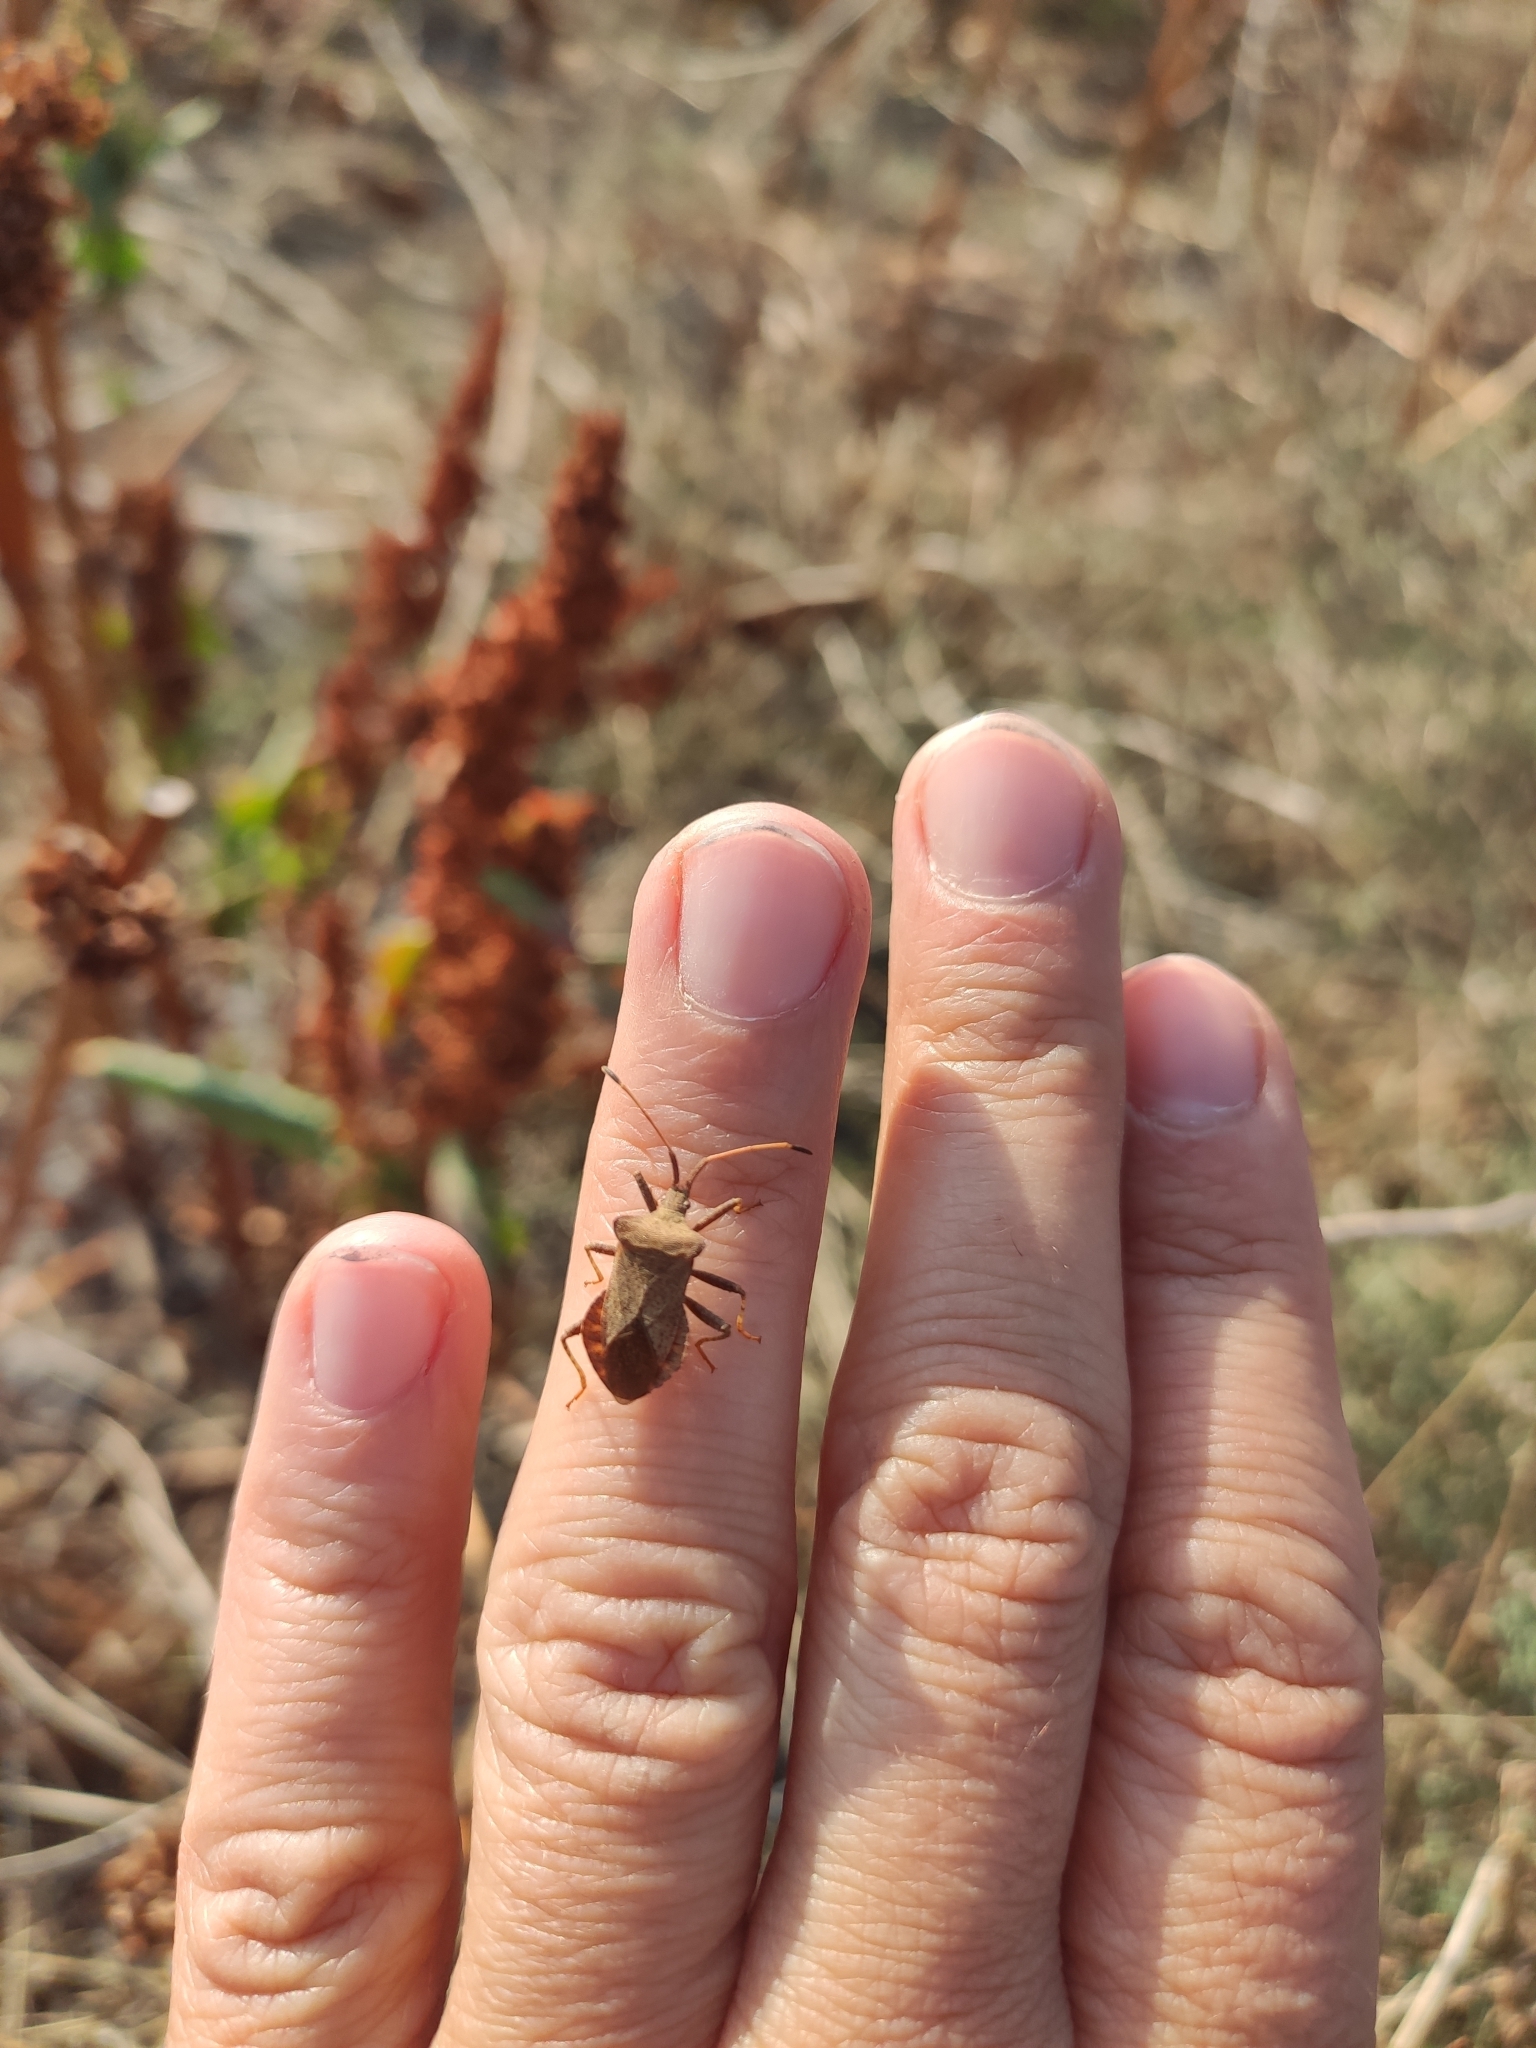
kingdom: Animalia
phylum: Arthropoda
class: Insecta
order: Hemiptera
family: Coreidae
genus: Coreus
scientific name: Coreus marginatus
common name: Dock bug
